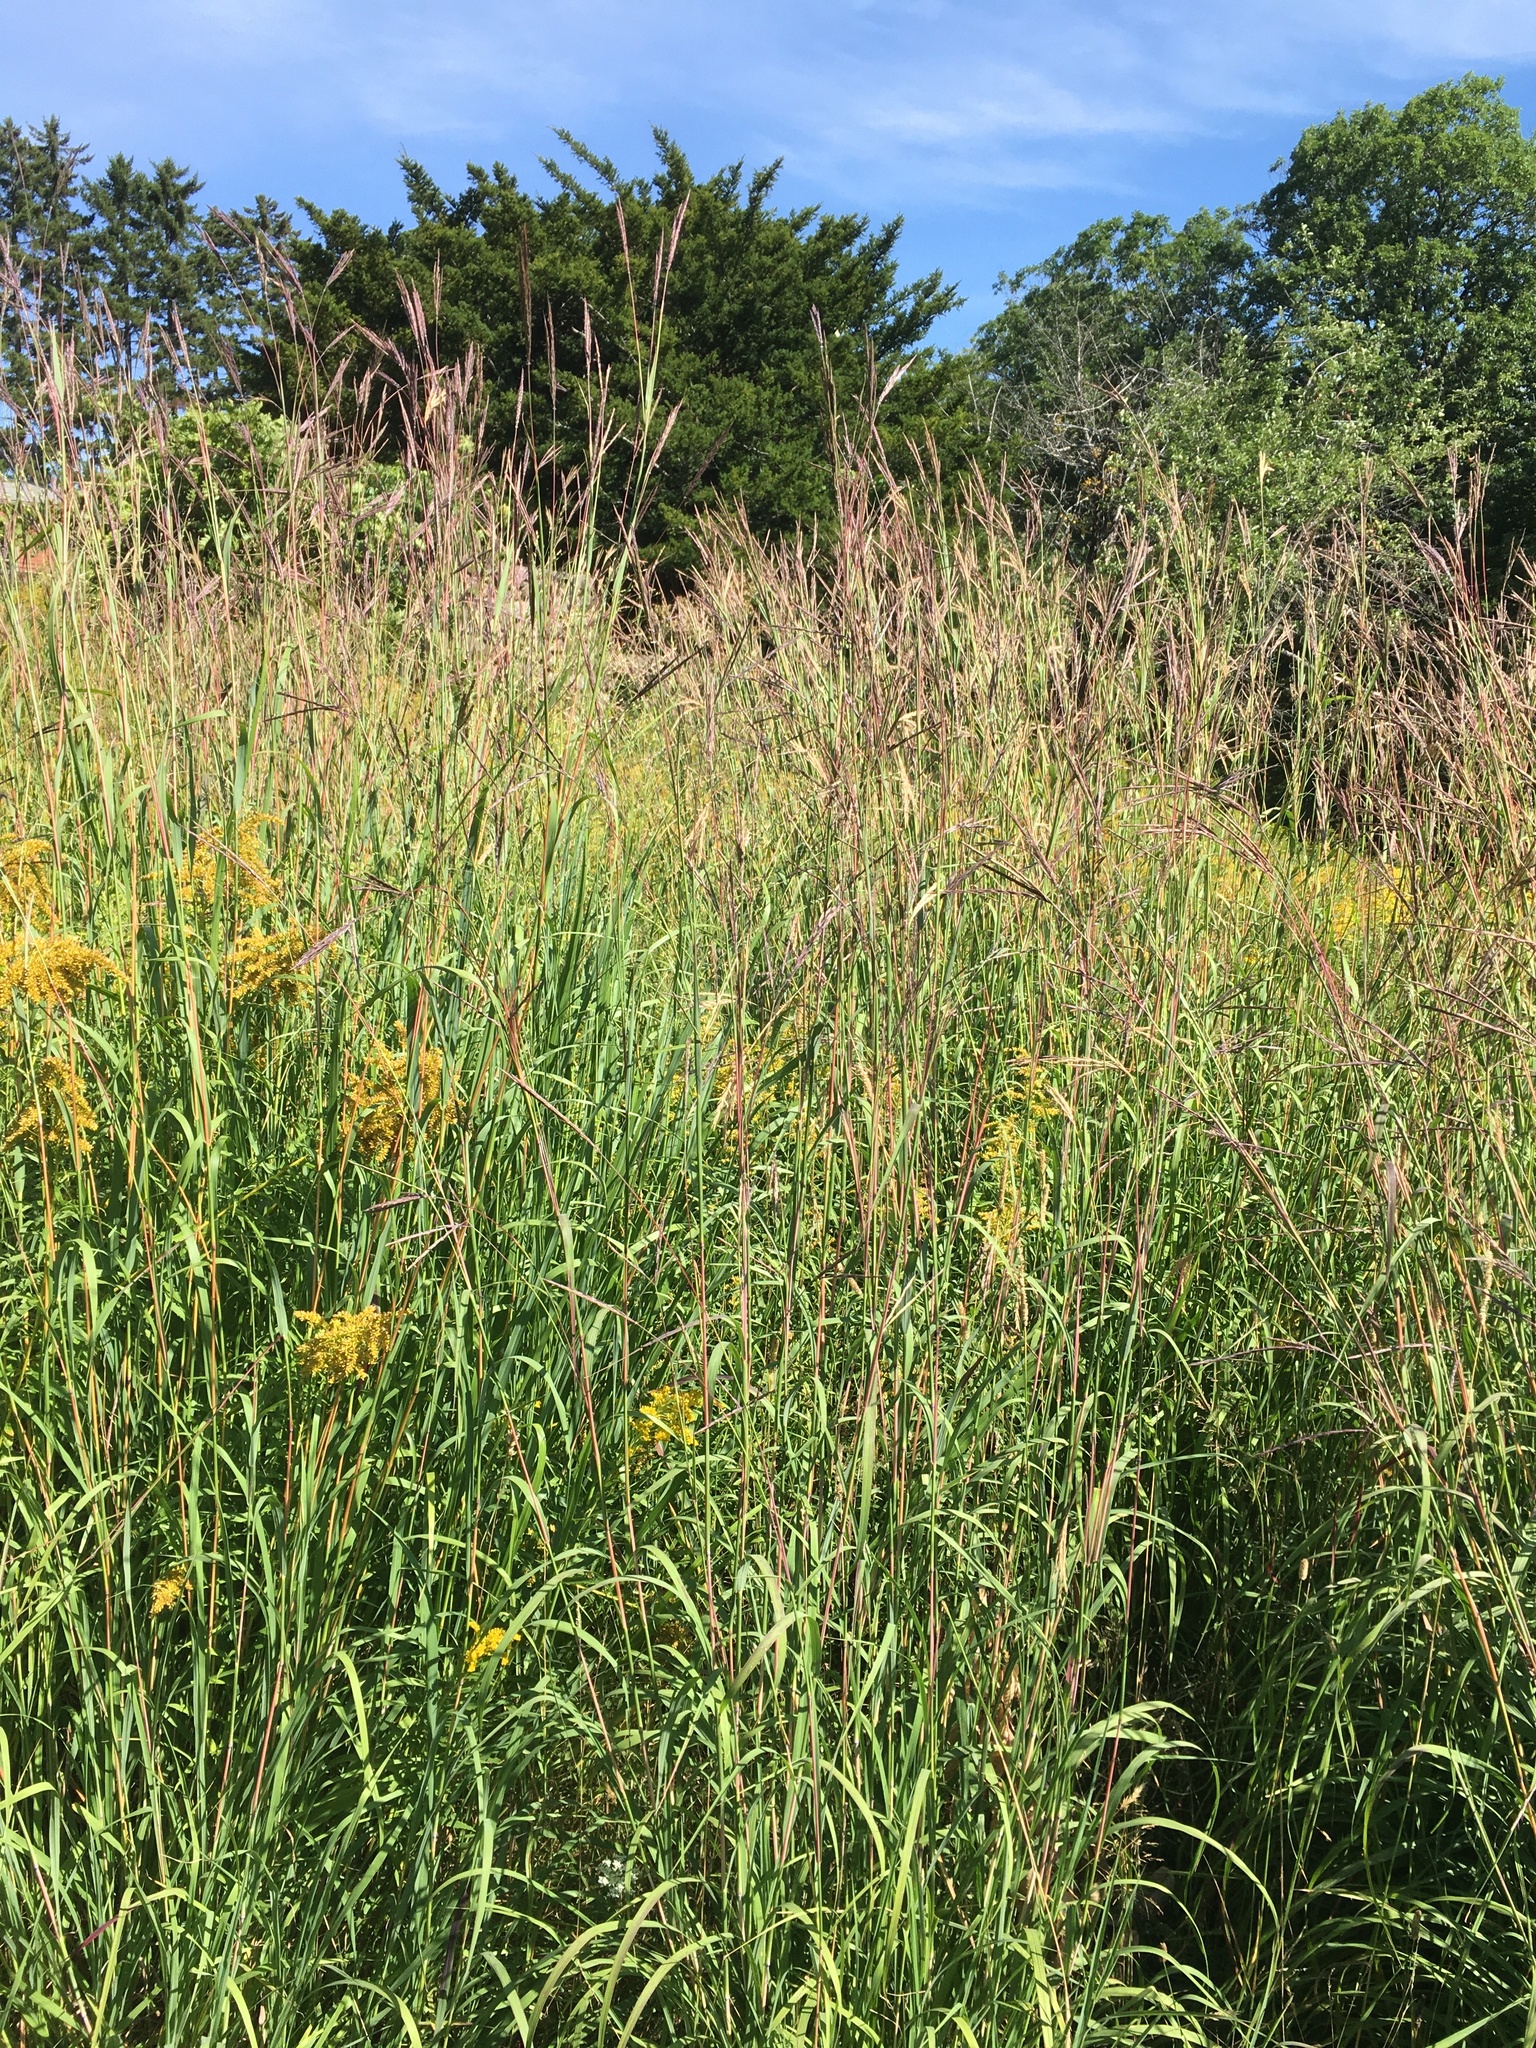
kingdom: Plantae
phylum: Tracheophyta
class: Liliopsida
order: Poales
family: Poaceae
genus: Andropogon
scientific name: Andropogon gerardi
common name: Big bluestem
